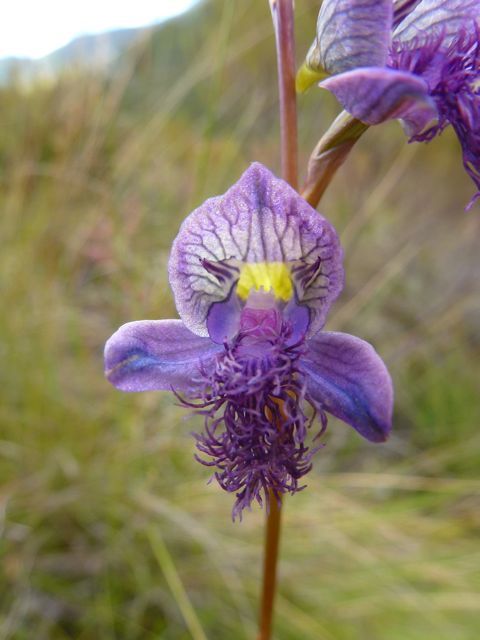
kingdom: Plantae
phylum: Tracheophyta
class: Liliopsida
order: Asparagales
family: Orchidaceae
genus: Disa
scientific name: Disa lugens
